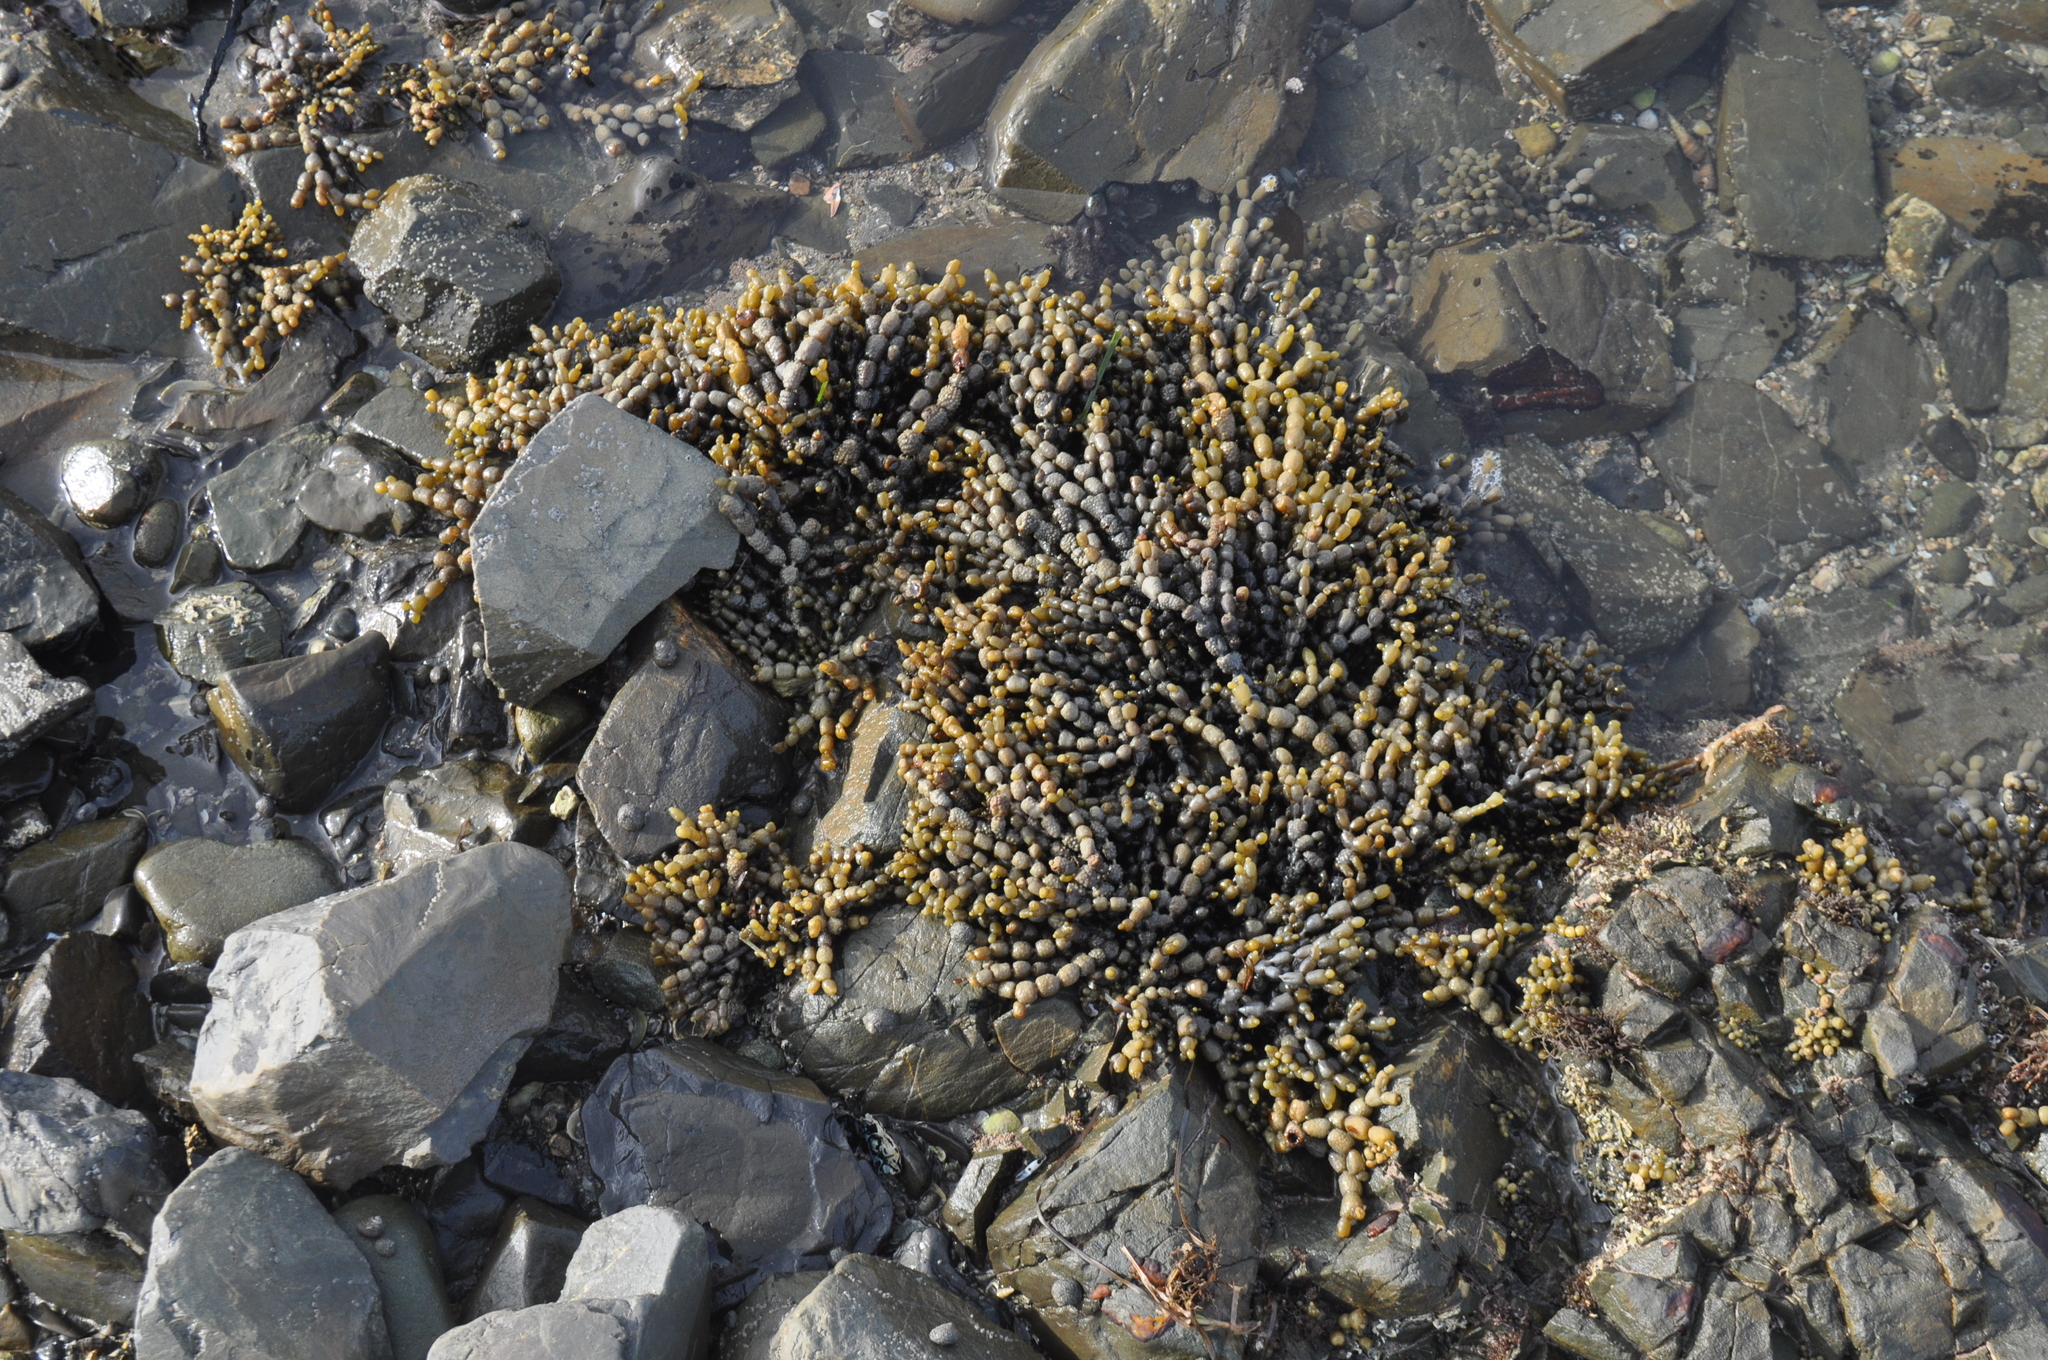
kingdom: Chromista
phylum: Ochrophyta
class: Phaeophyceae
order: Fucales
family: Hormosiraceae
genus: Hormosira
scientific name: Hormosira banksii
